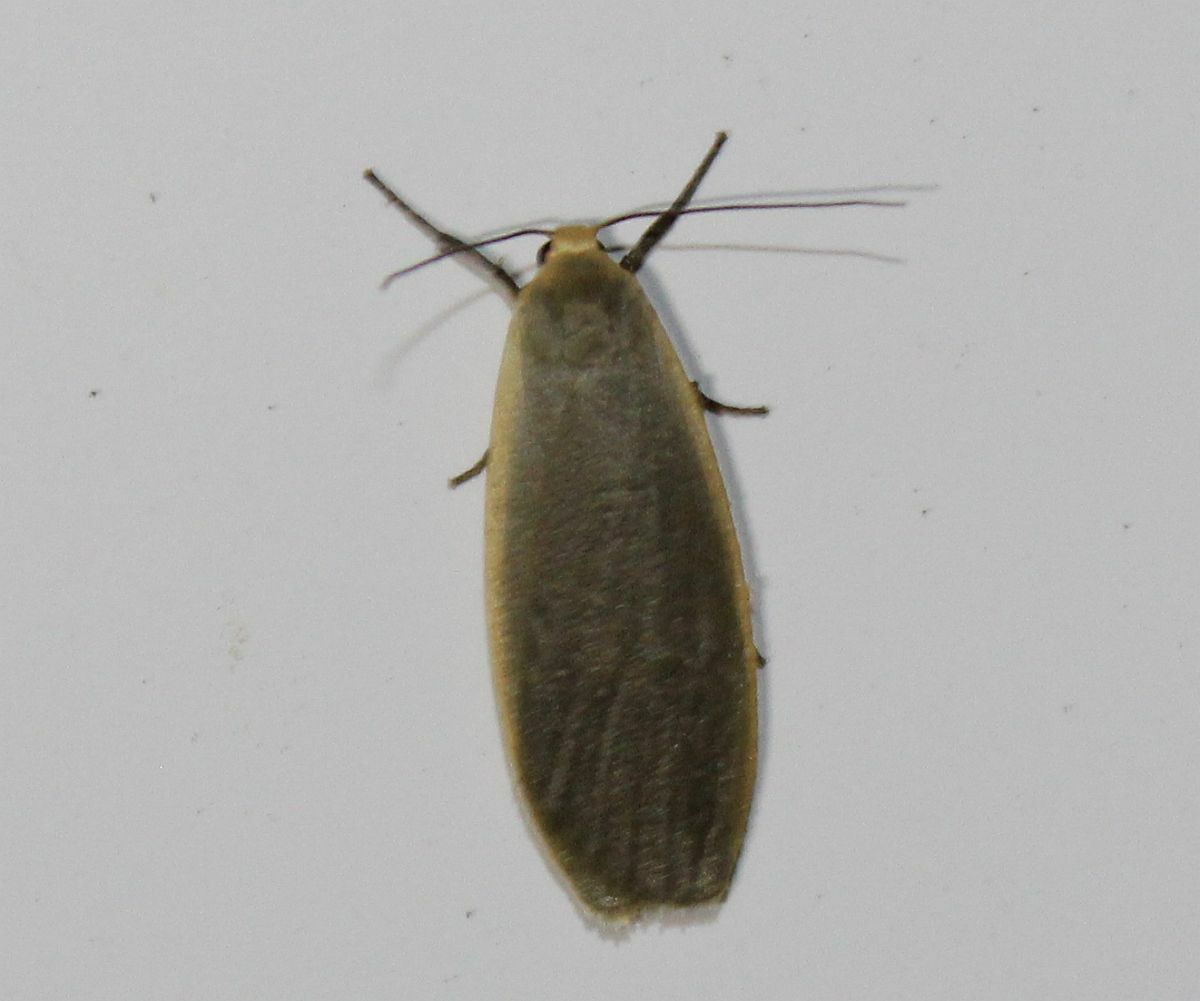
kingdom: Animalia
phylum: Arthropoda
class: Insecta
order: Lepidoptera
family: Erebidae
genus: Collita
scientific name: Collita griseola
